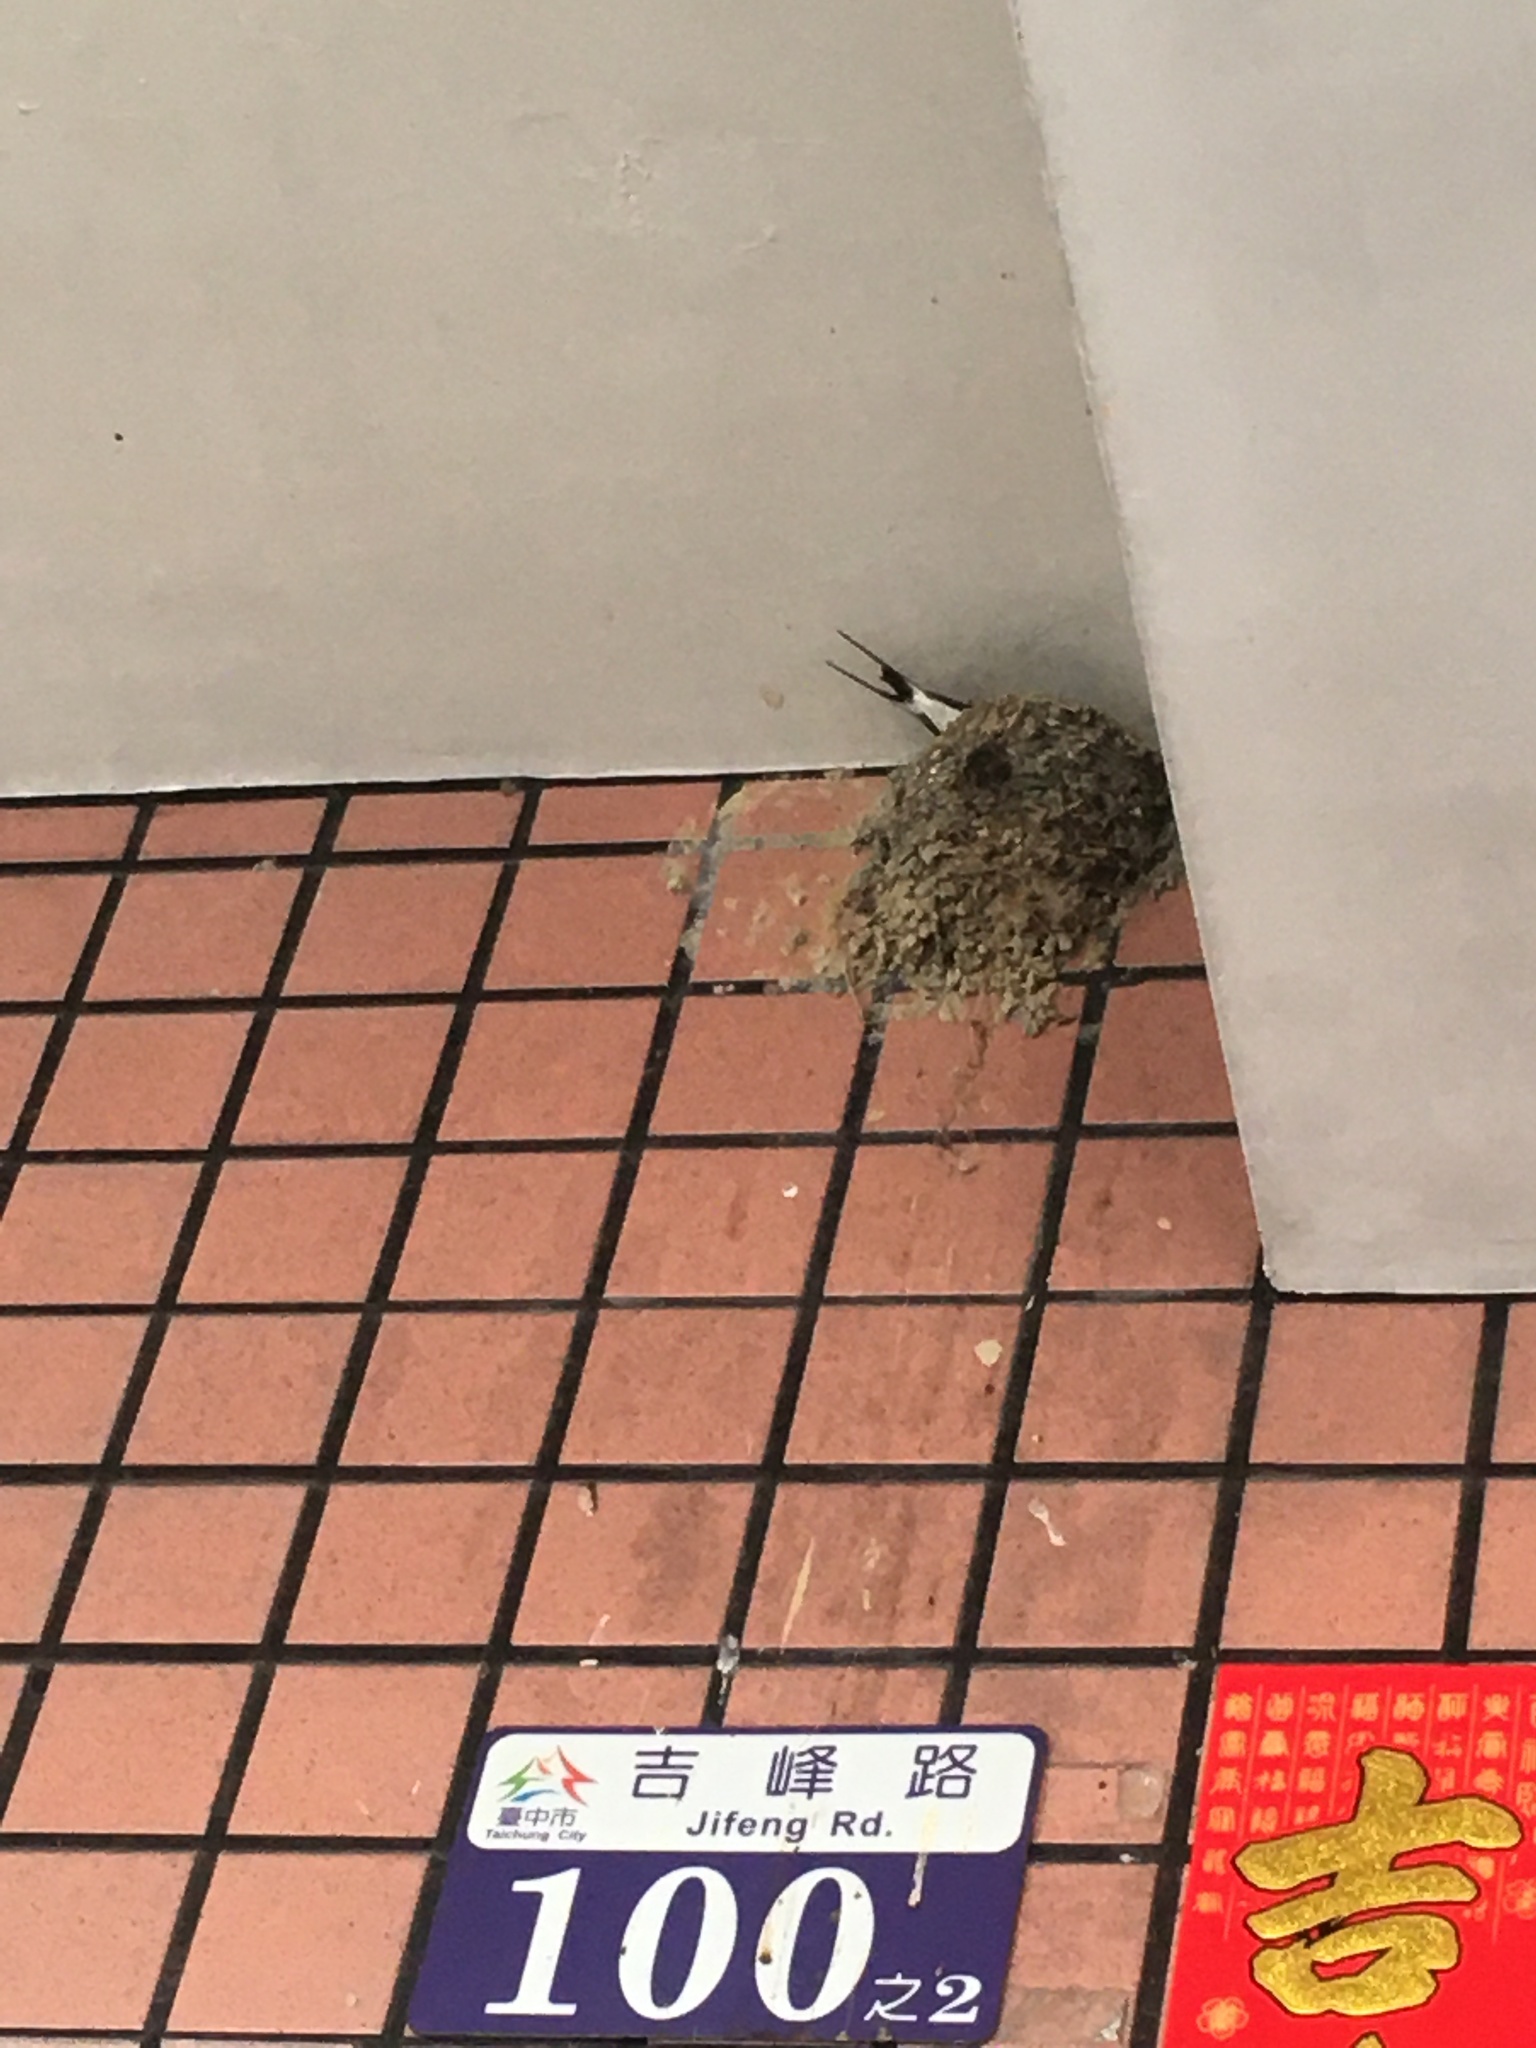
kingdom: Animalia
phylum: Chordata
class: Aves
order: Passeriformes
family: Hirundinidae
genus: Hirundo
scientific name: Hirundo rustica
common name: Barn swallow
